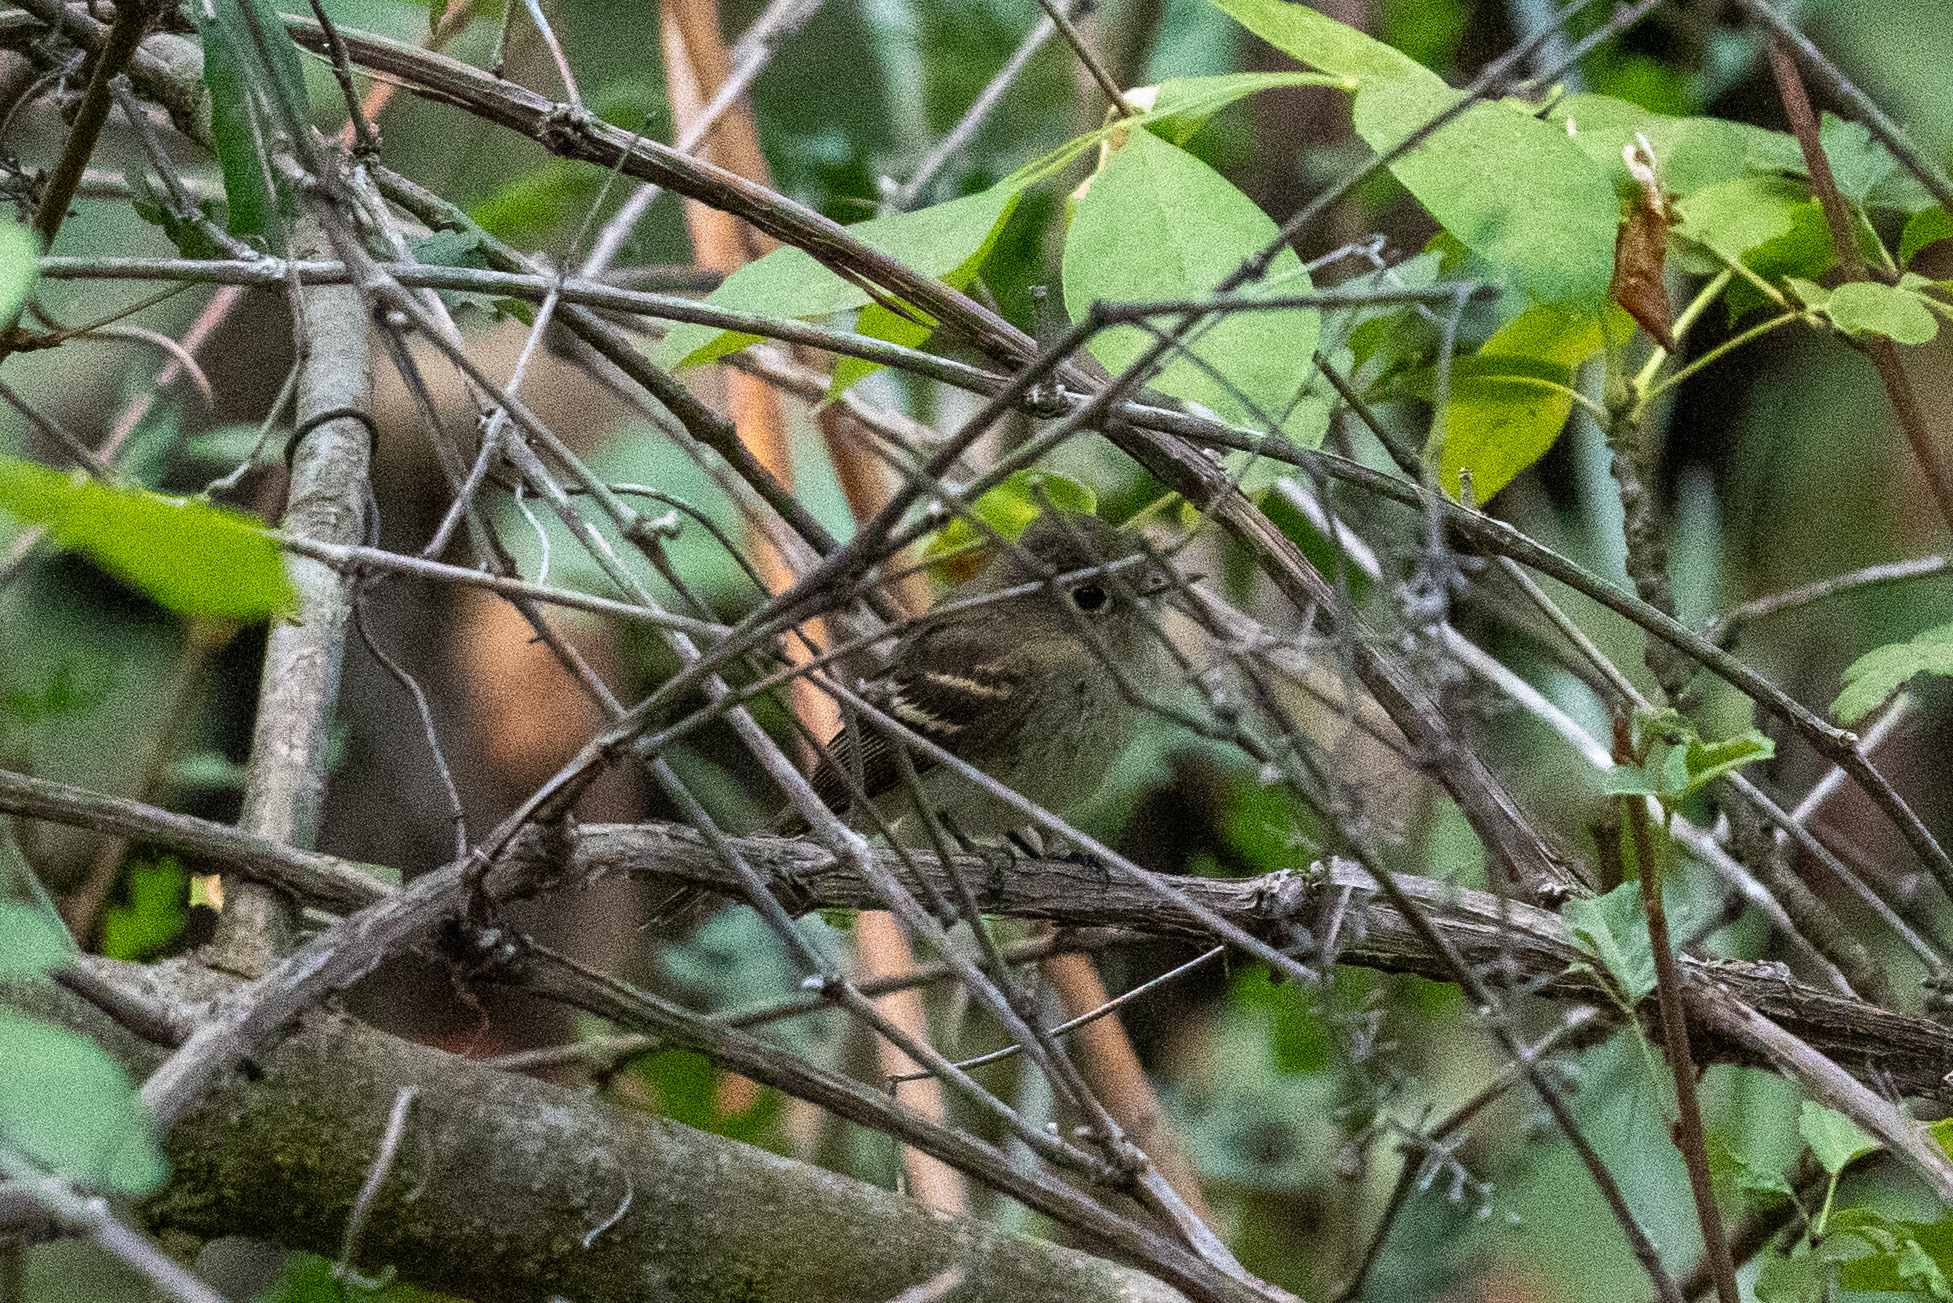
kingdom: Animalia
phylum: Chordata
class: Aves
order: Passeriformes
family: Tyrannidae
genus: Empidonax
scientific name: Empidonax difficilis
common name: Pacific-slope flycatcher
